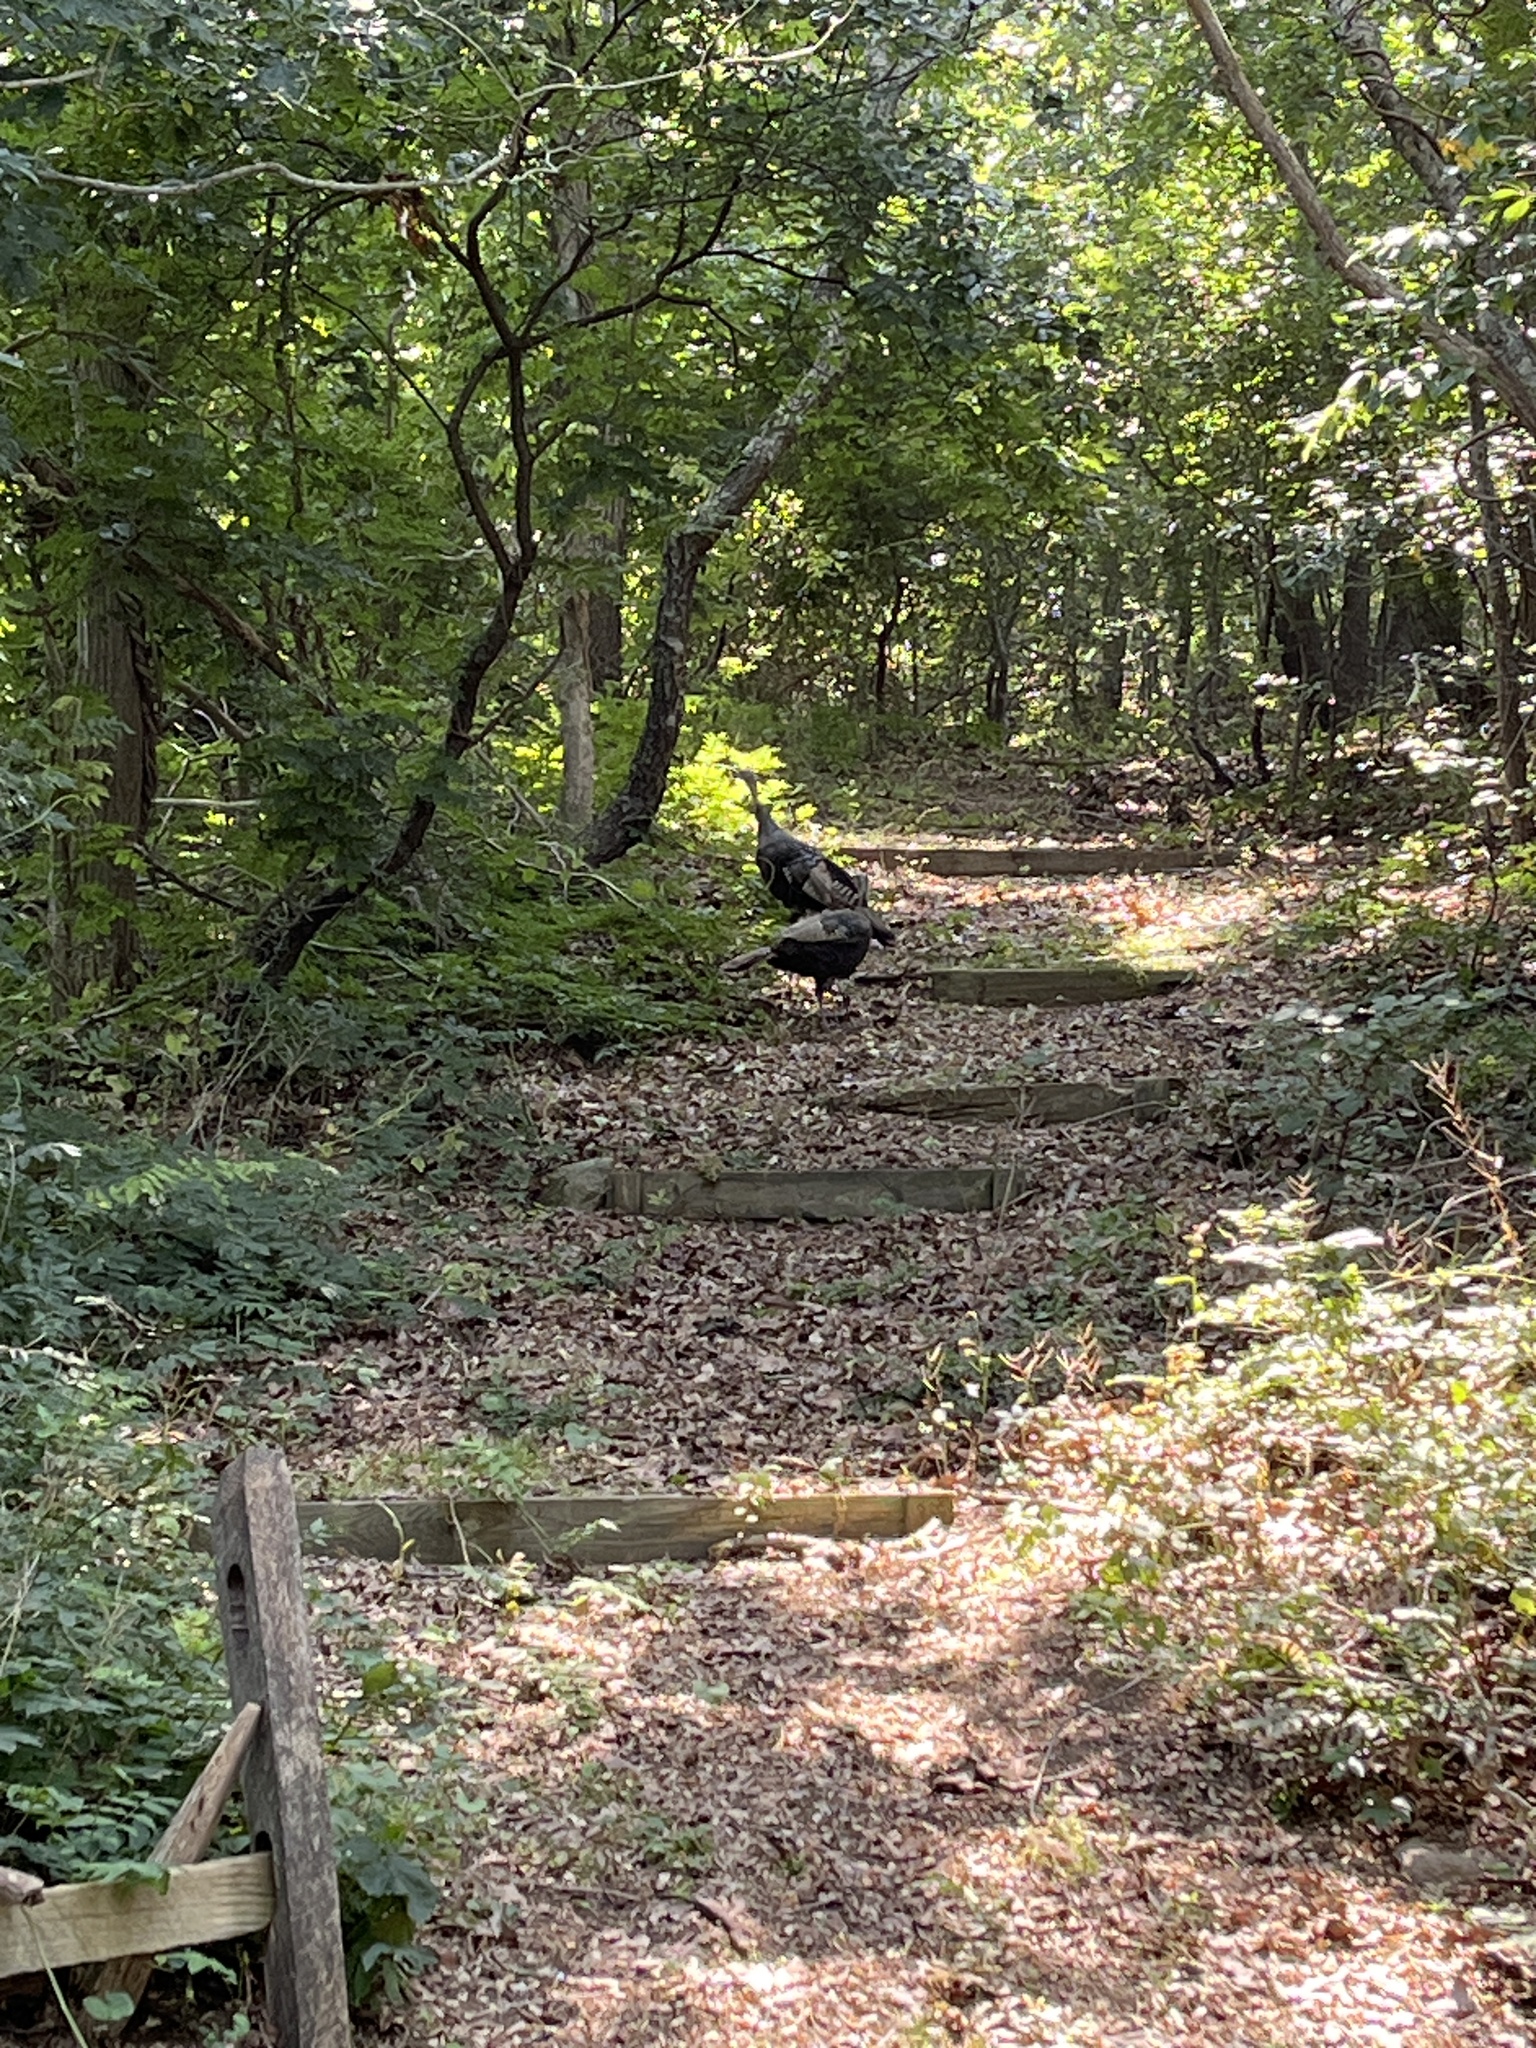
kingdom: Animalia
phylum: Chordata
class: Aves
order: Galliformes
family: Phasianidae
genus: Meleagris
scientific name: Meleagris gallopavo
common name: Wild turkey
